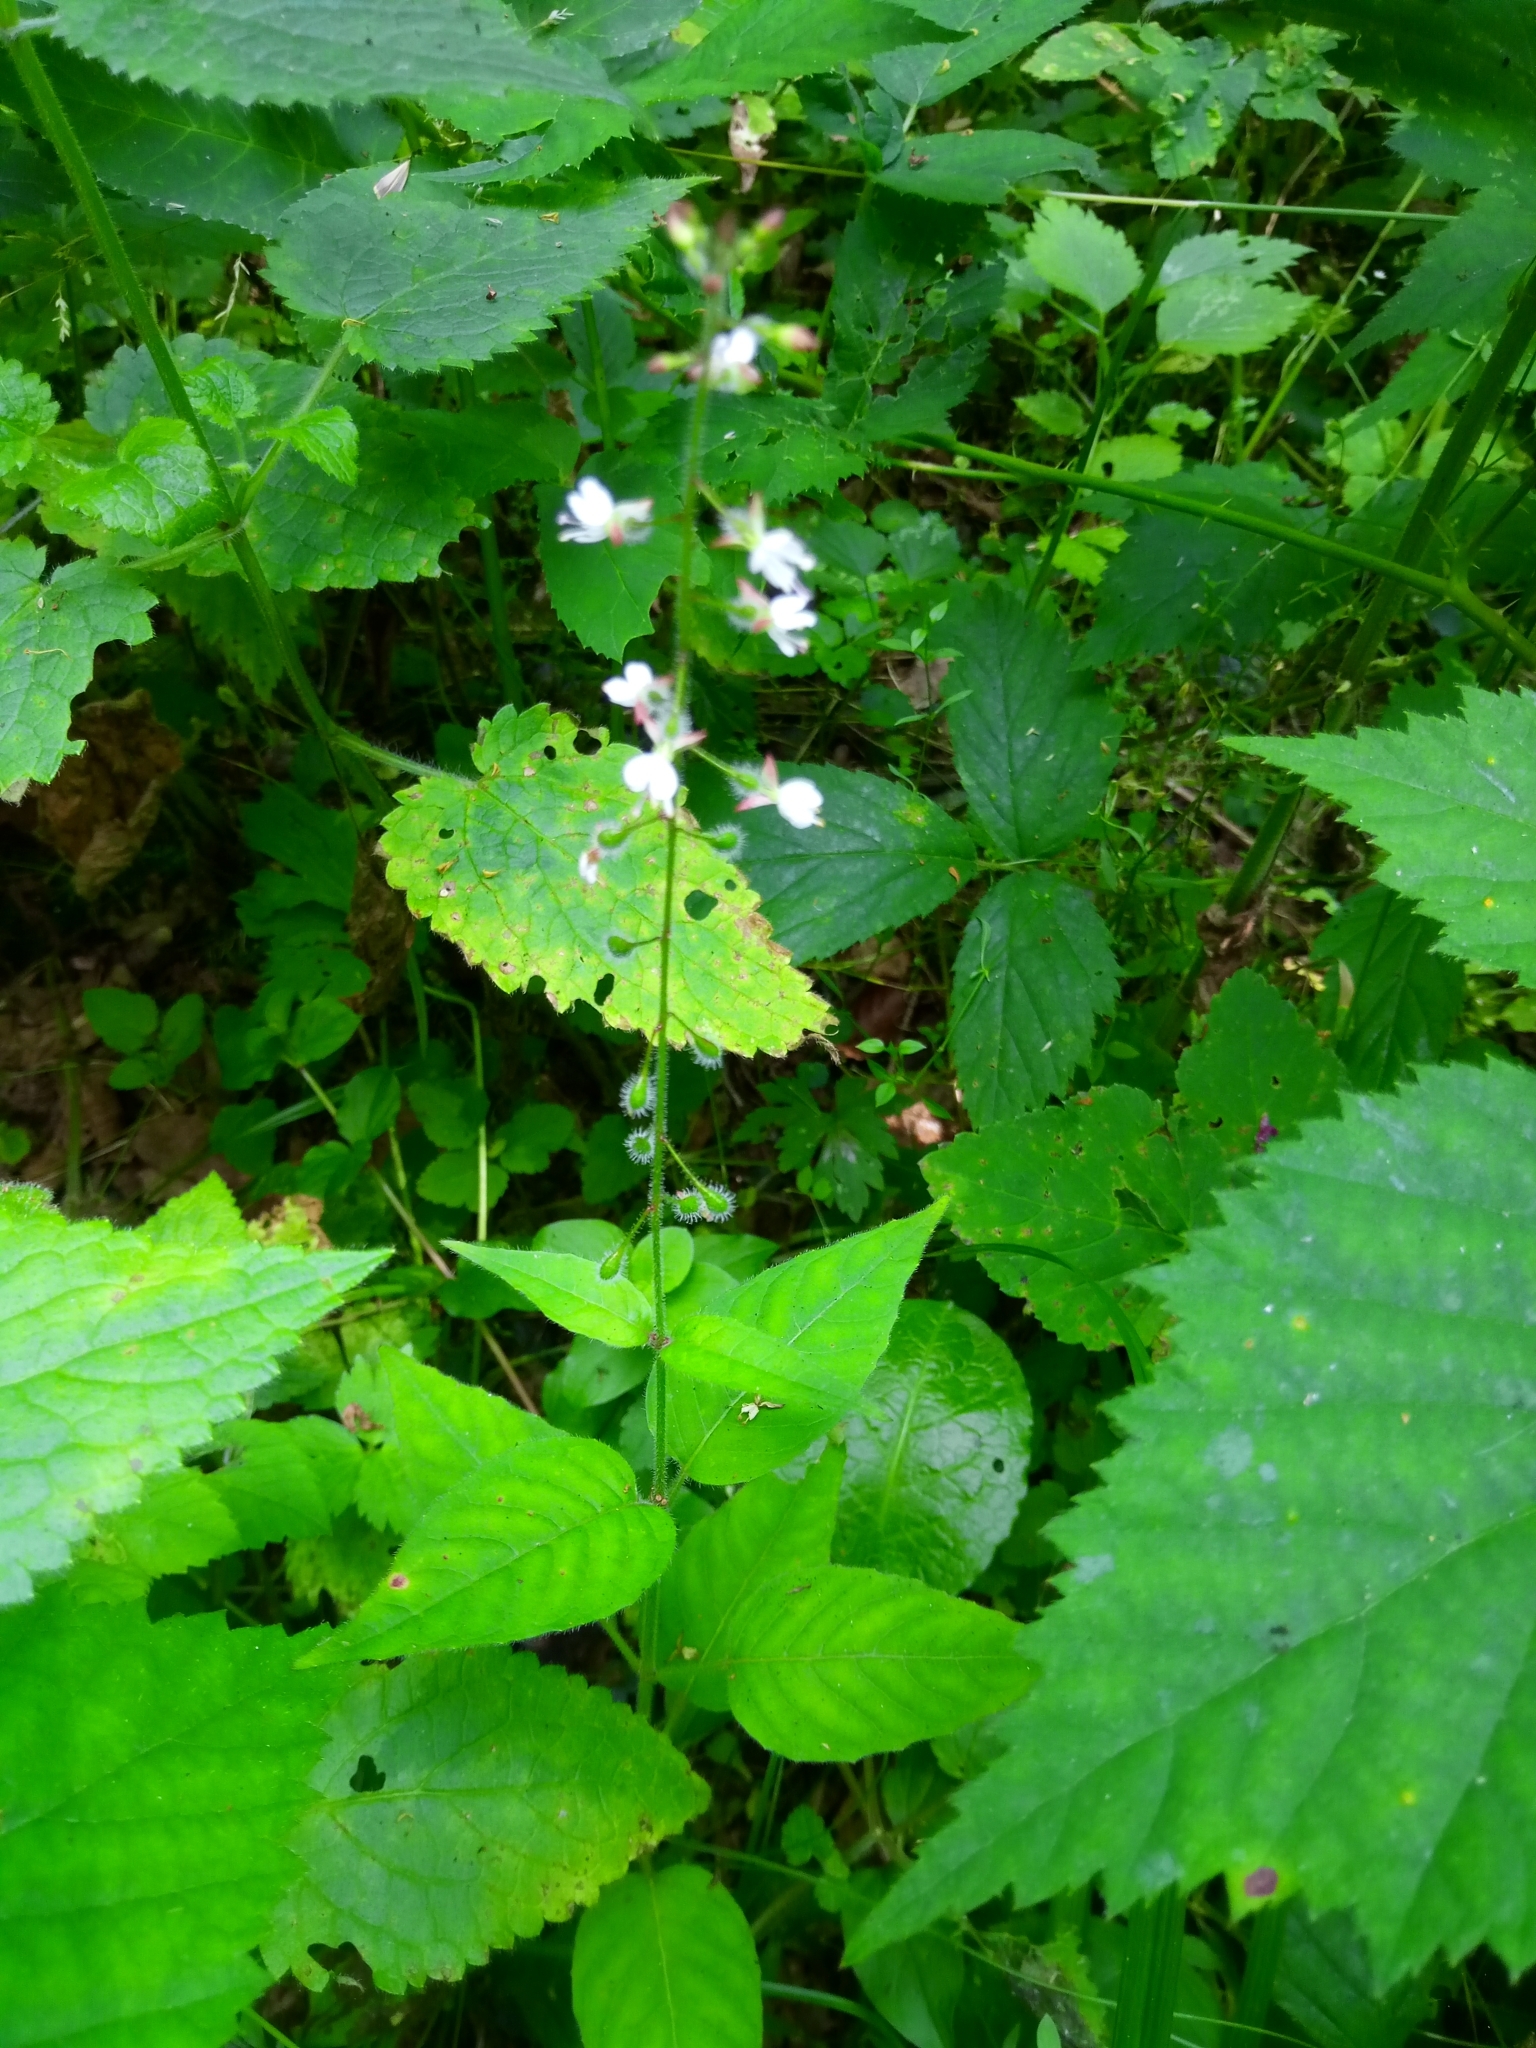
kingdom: Plantae
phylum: Tracheophyta
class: Magnoliopsida
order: Myrtales
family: Onagraceae
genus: Circaea
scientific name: Circaea lutetiana
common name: Enchanter's-nightshade
